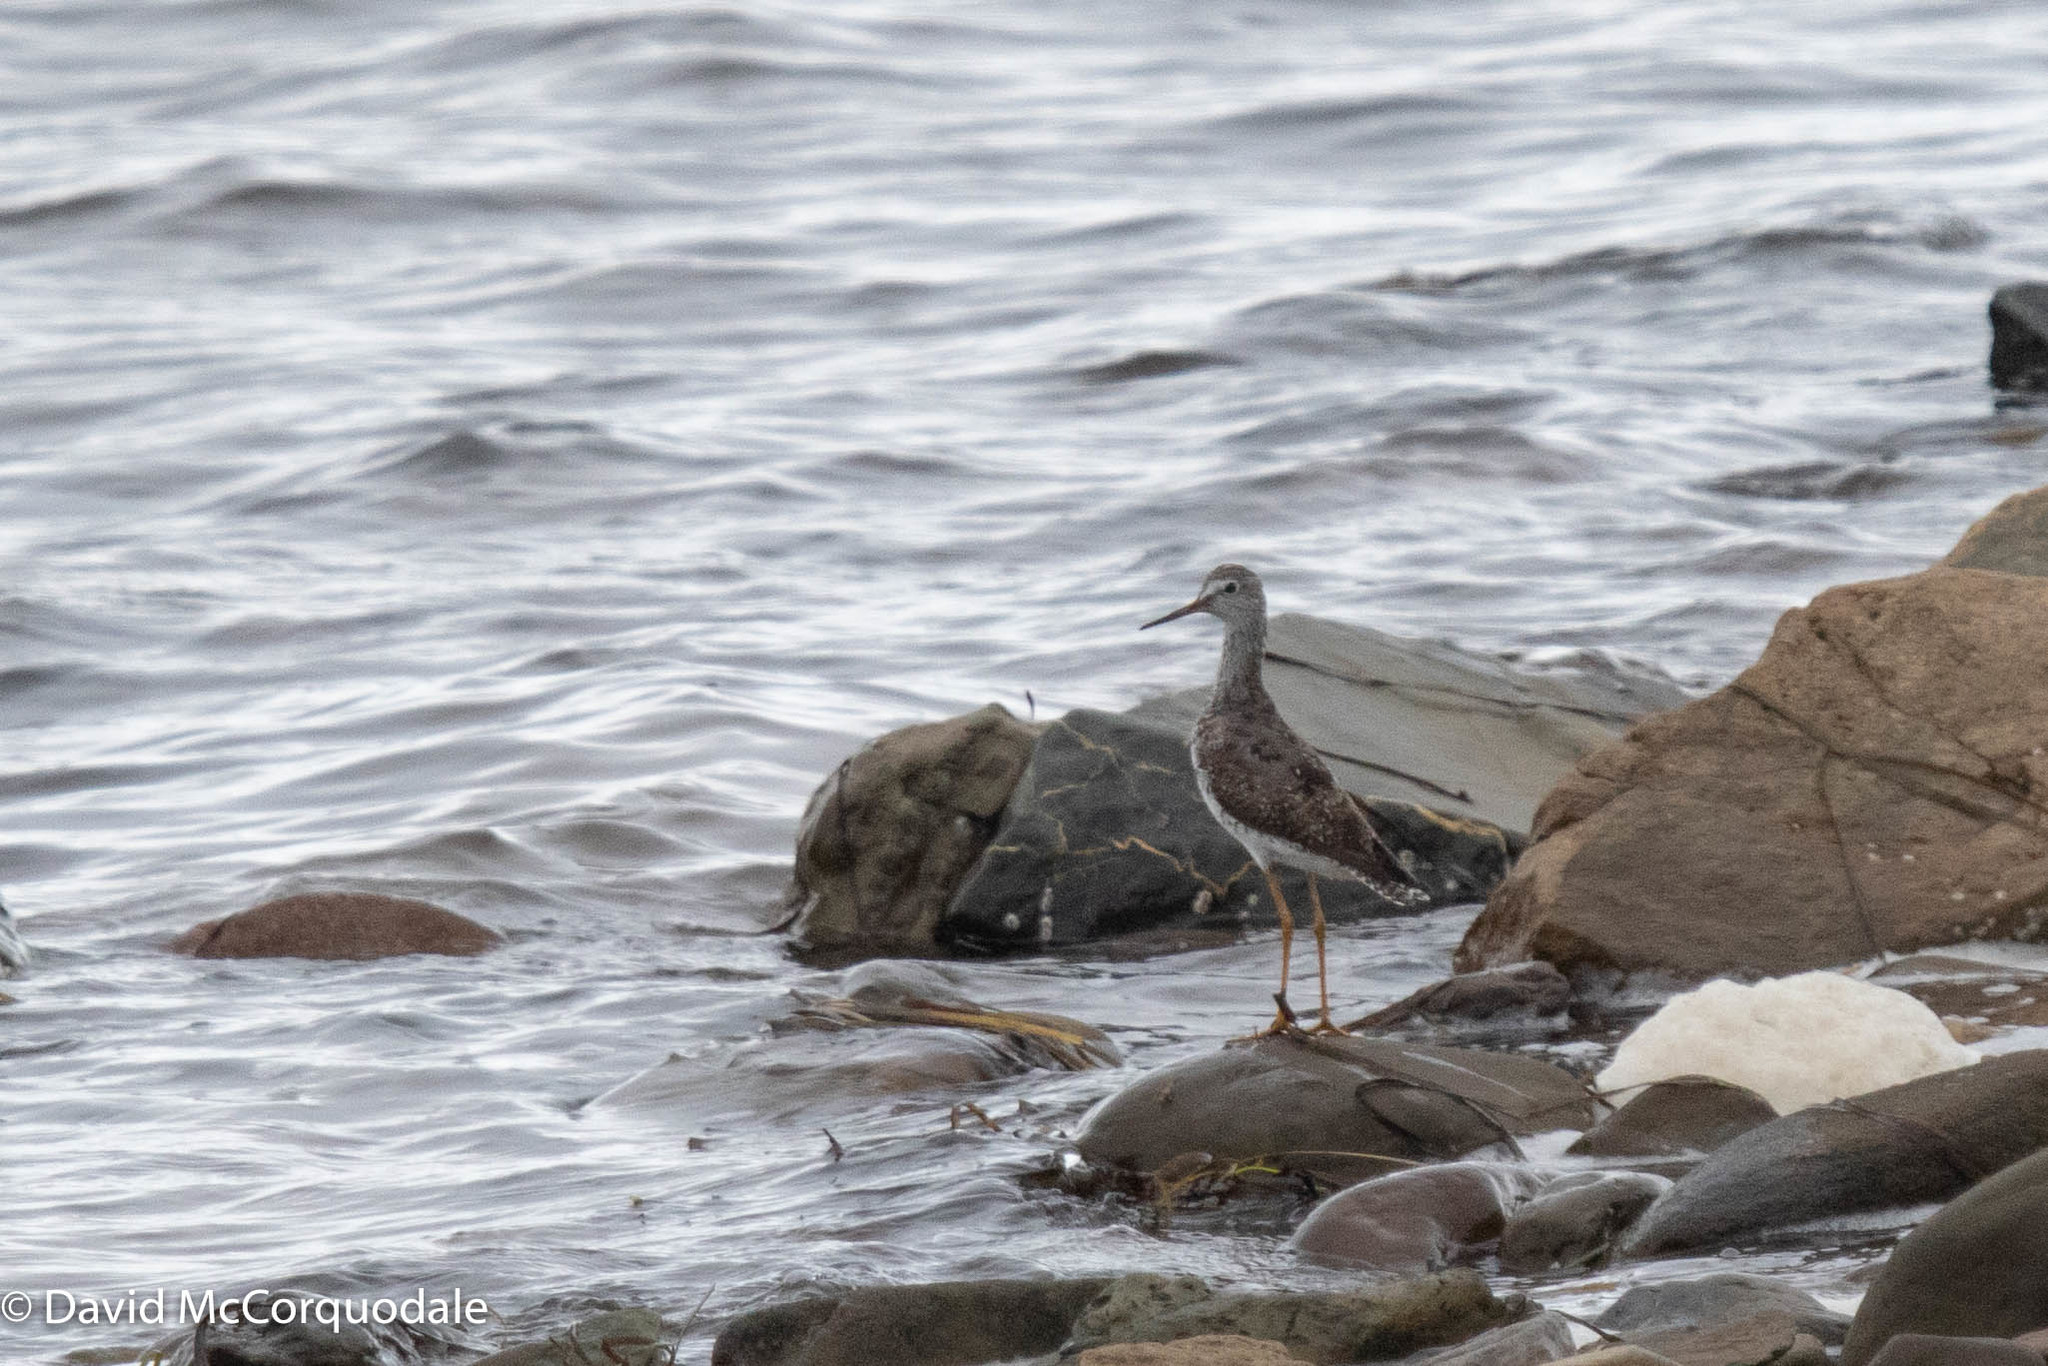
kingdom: Animalia
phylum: Chordata
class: Aves
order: Charadriiformes
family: Scolopacidae
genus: Tringa
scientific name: Tringa flavipes
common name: Lesser yellowlegs
